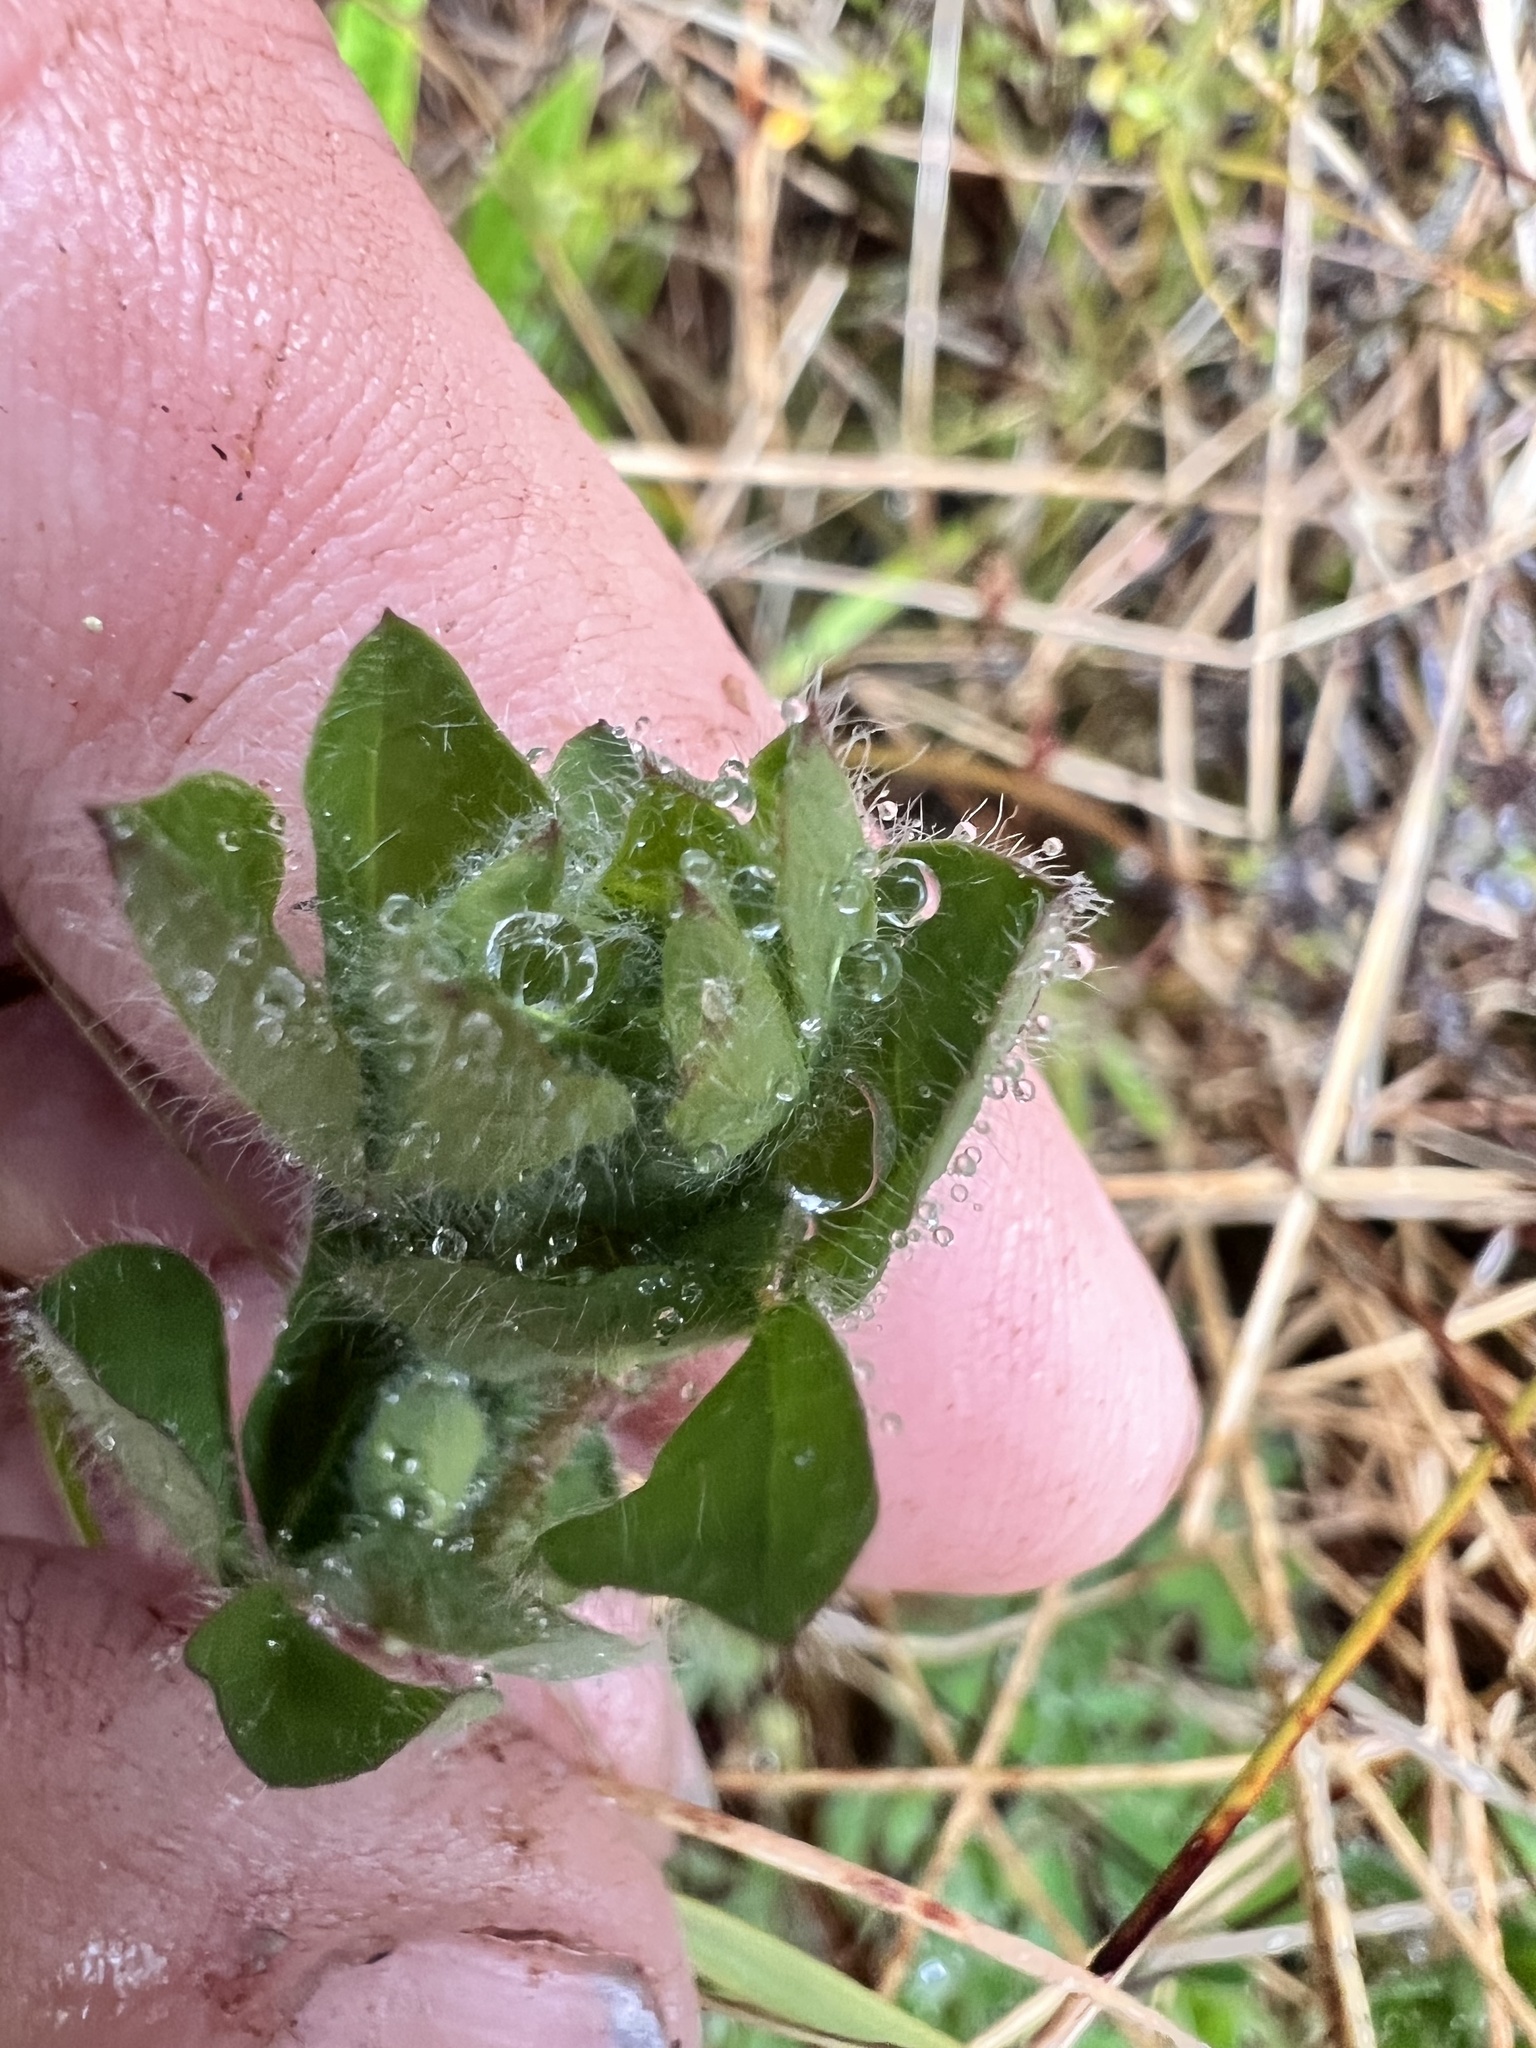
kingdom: Plantae
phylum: Tracheophyta
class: Magnoliopsida
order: Fabales
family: Fabaceae
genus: Lotus
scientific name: Lotus pedunculatus
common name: Greater birdsfoot-trefoil
